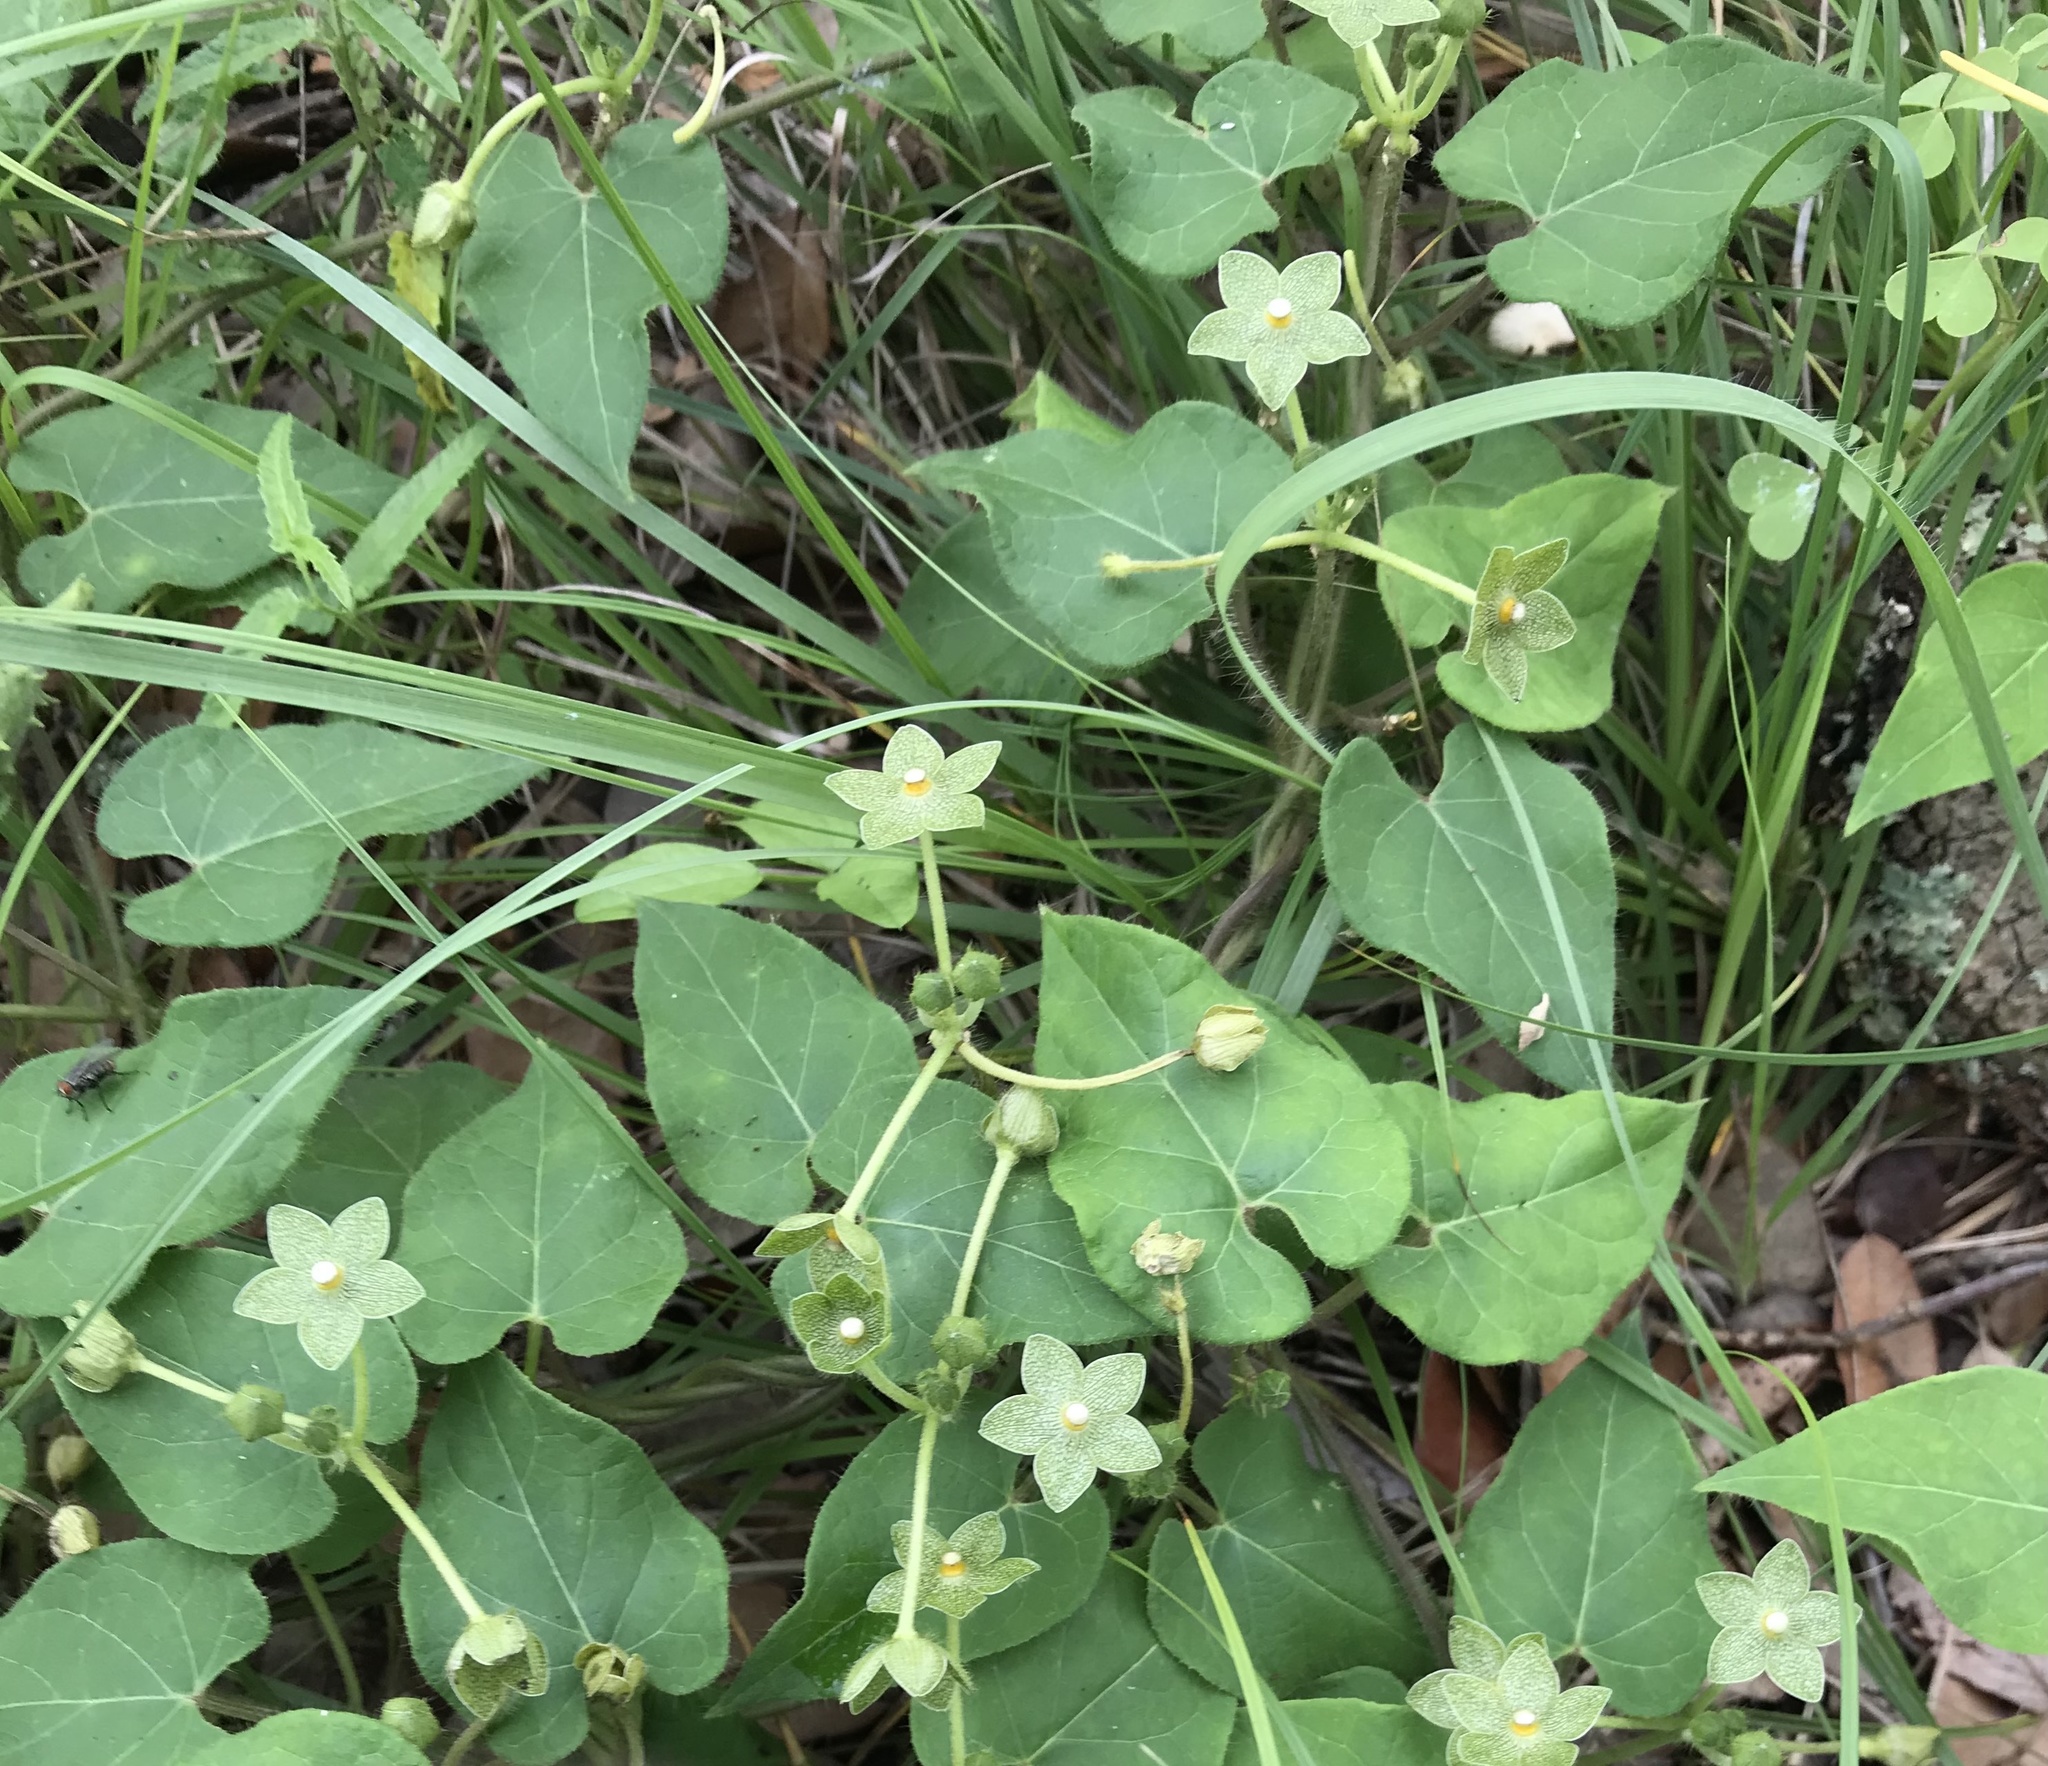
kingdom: Plantae
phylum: Tracheophyta
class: Magnoliopsida
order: Gentianales
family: Apocynaceae
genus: Dictyanthus
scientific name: Dictyanthus reticulatus
